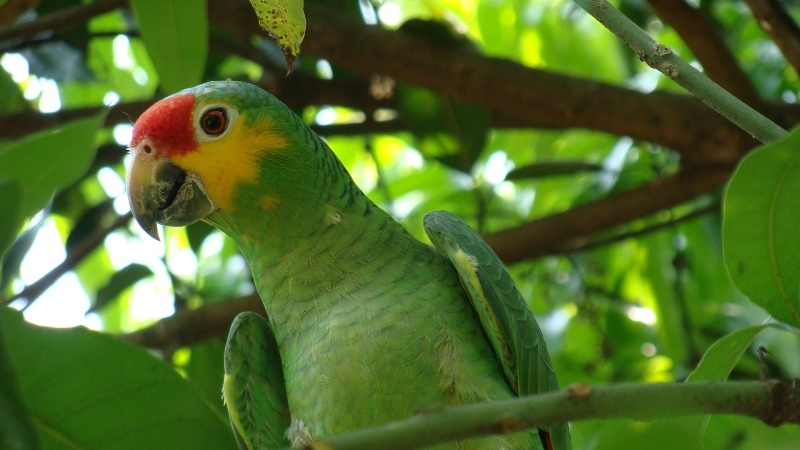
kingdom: Animalia
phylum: Chordata
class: Aves
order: Psittaciformes
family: Psittacidae
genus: Amazona
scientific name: Amazona autumnalis
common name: Red-lored amazon
